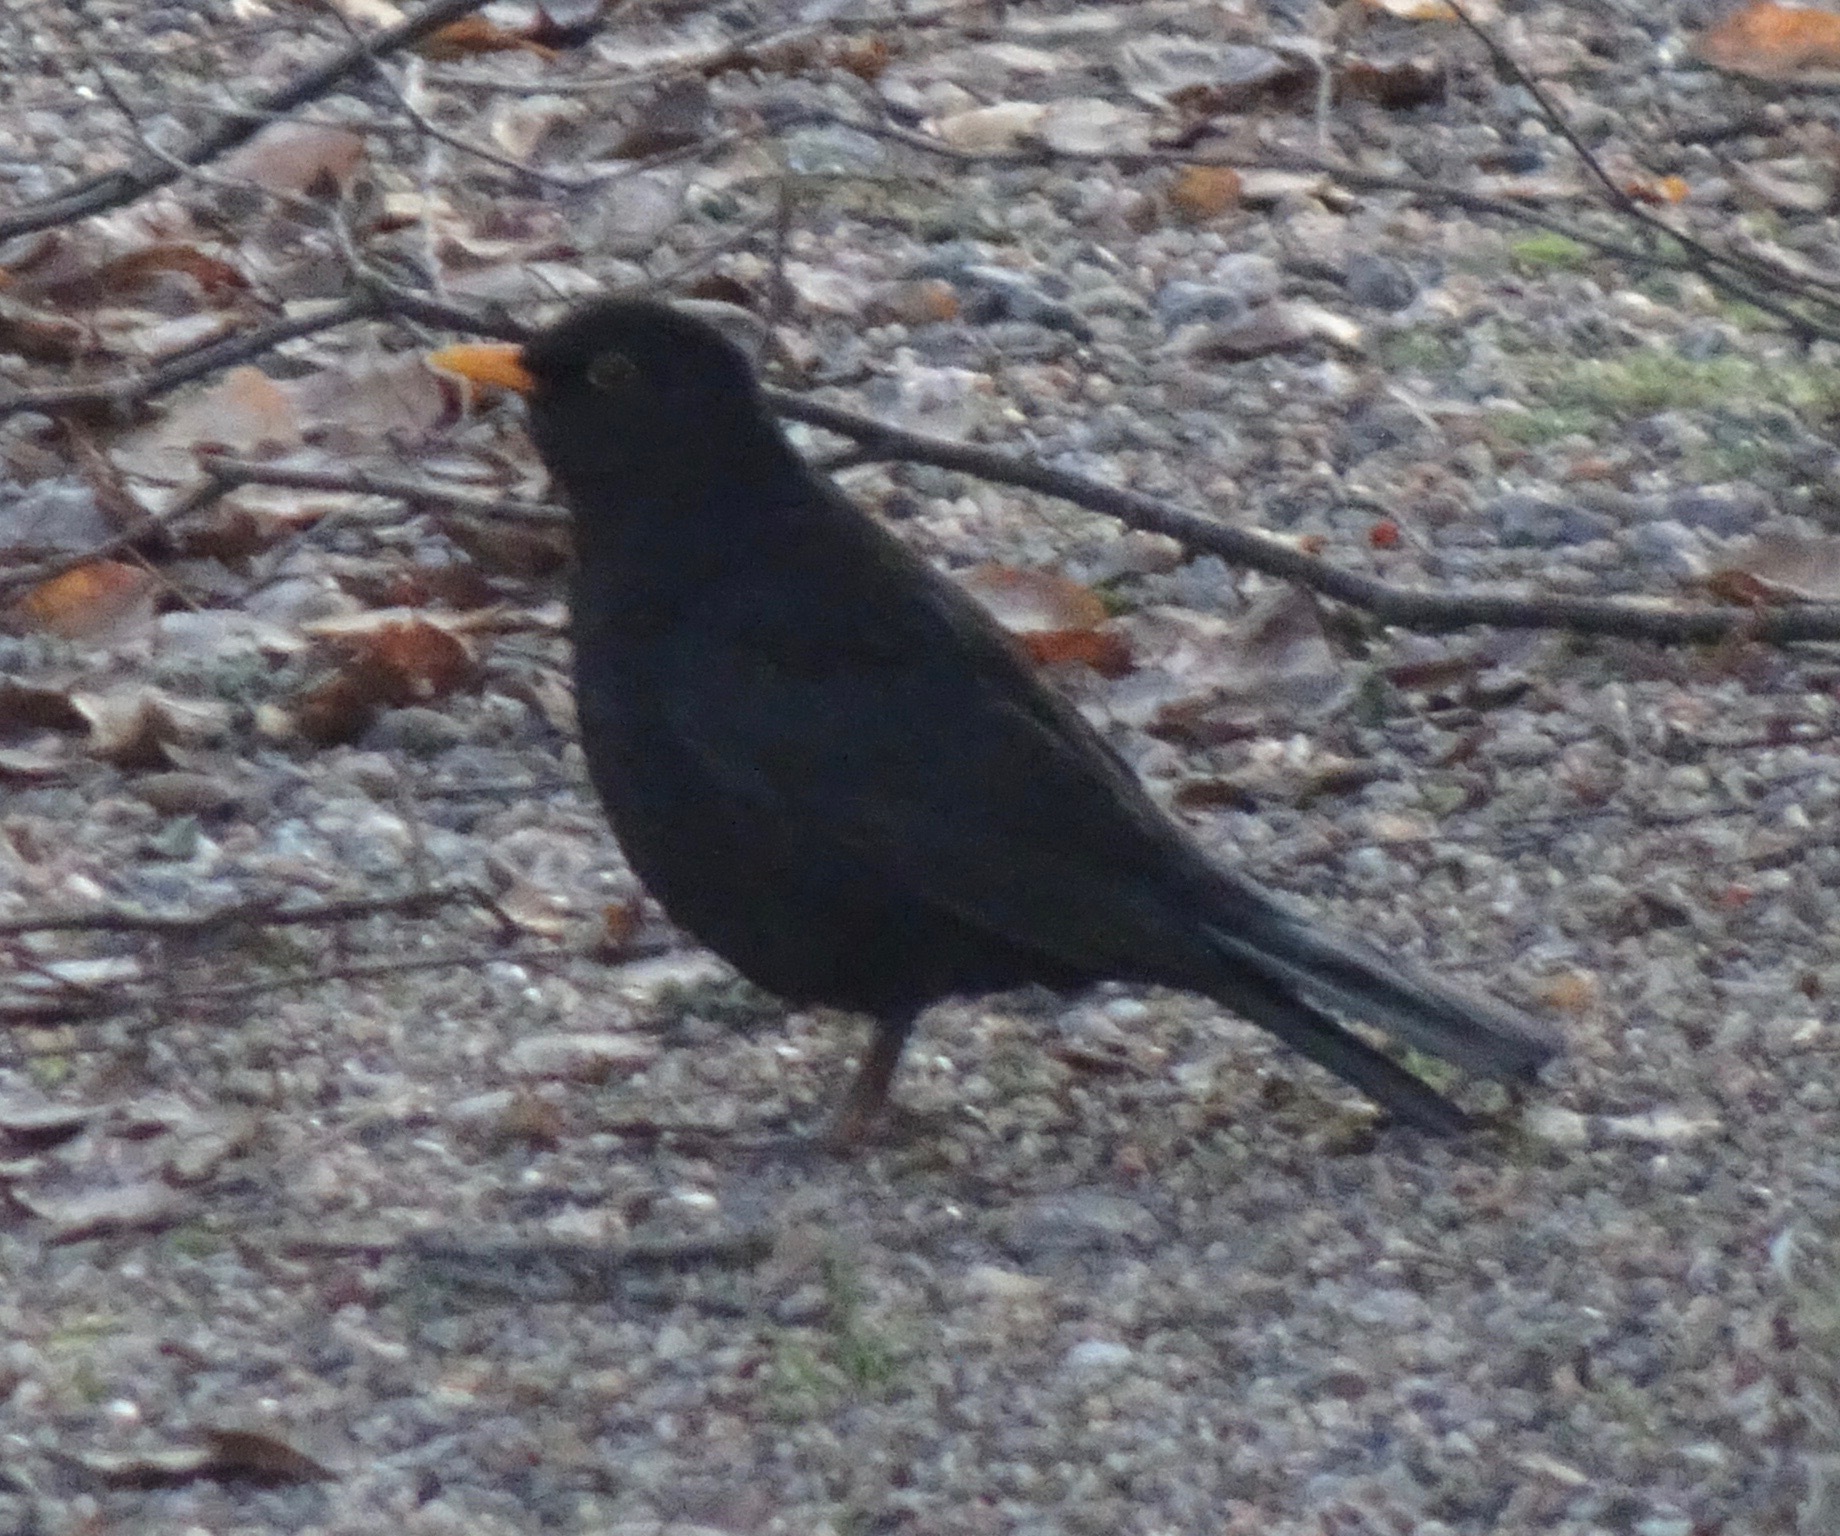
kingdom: Animalia
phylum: Chordata
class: Aves
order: Passeriformes
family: Turdidae
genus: Turdus
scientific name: Turdus merula
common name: Common blackbird
